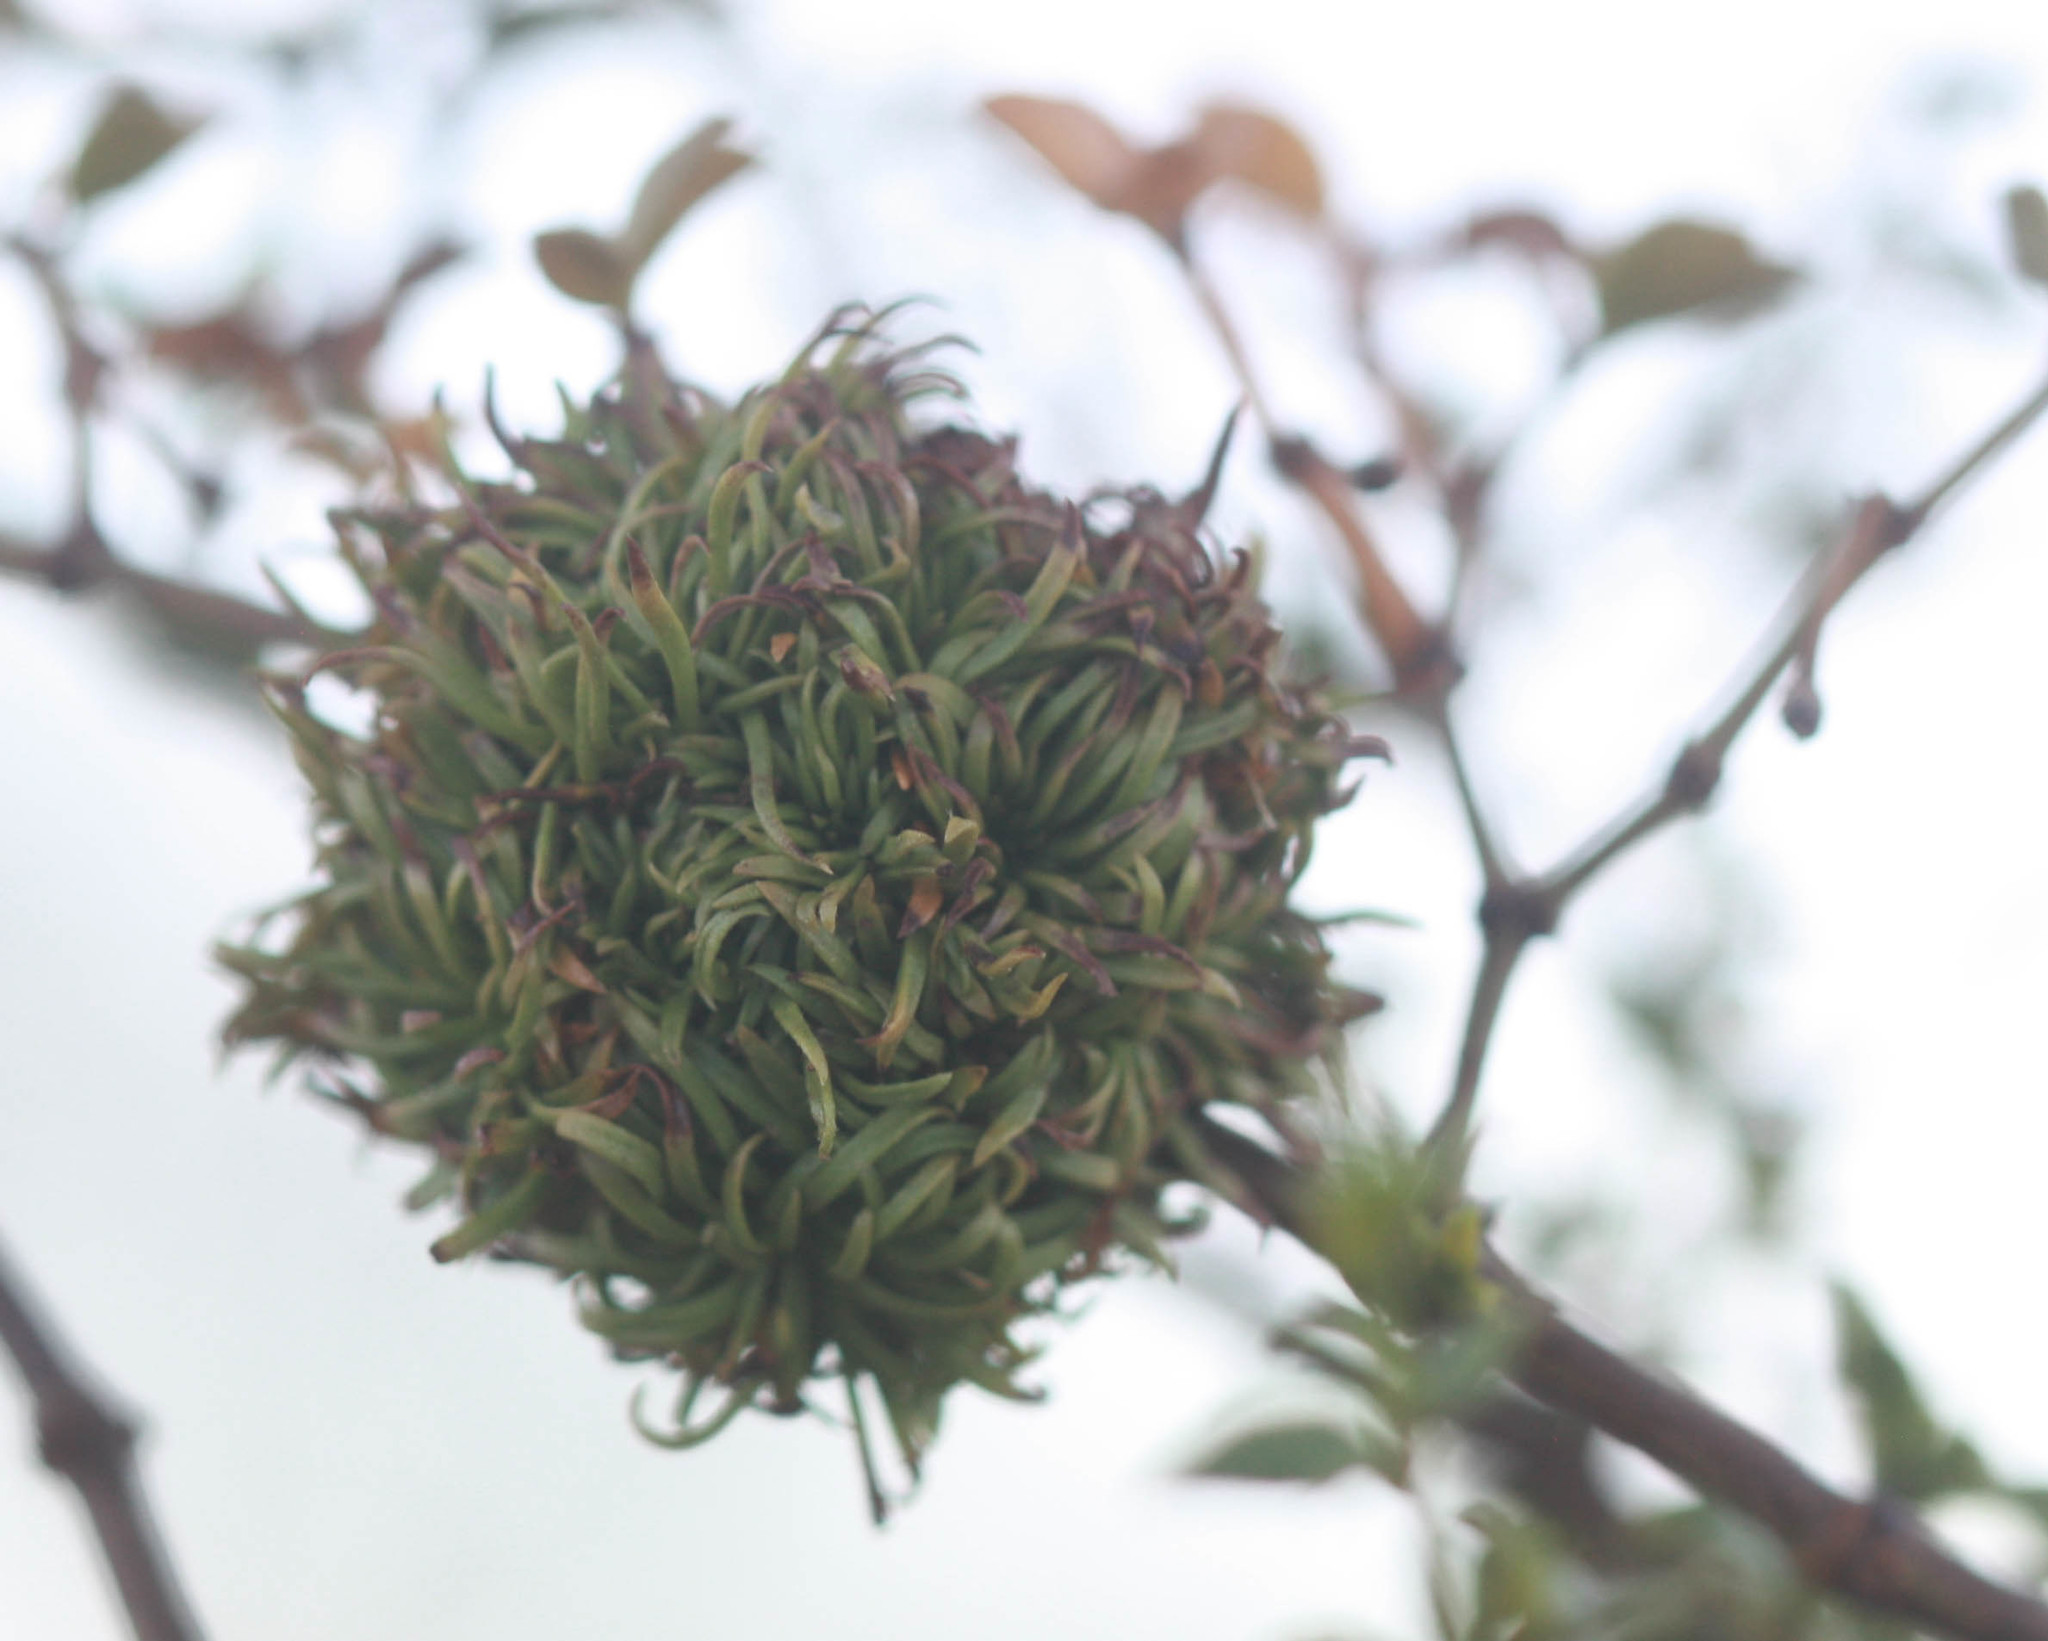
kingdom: Animalia
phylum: Arthropoda
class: Insecta
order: Diptera
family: Cecidomyiidae
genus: Asphondylia
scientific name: Asphondylia auripila
